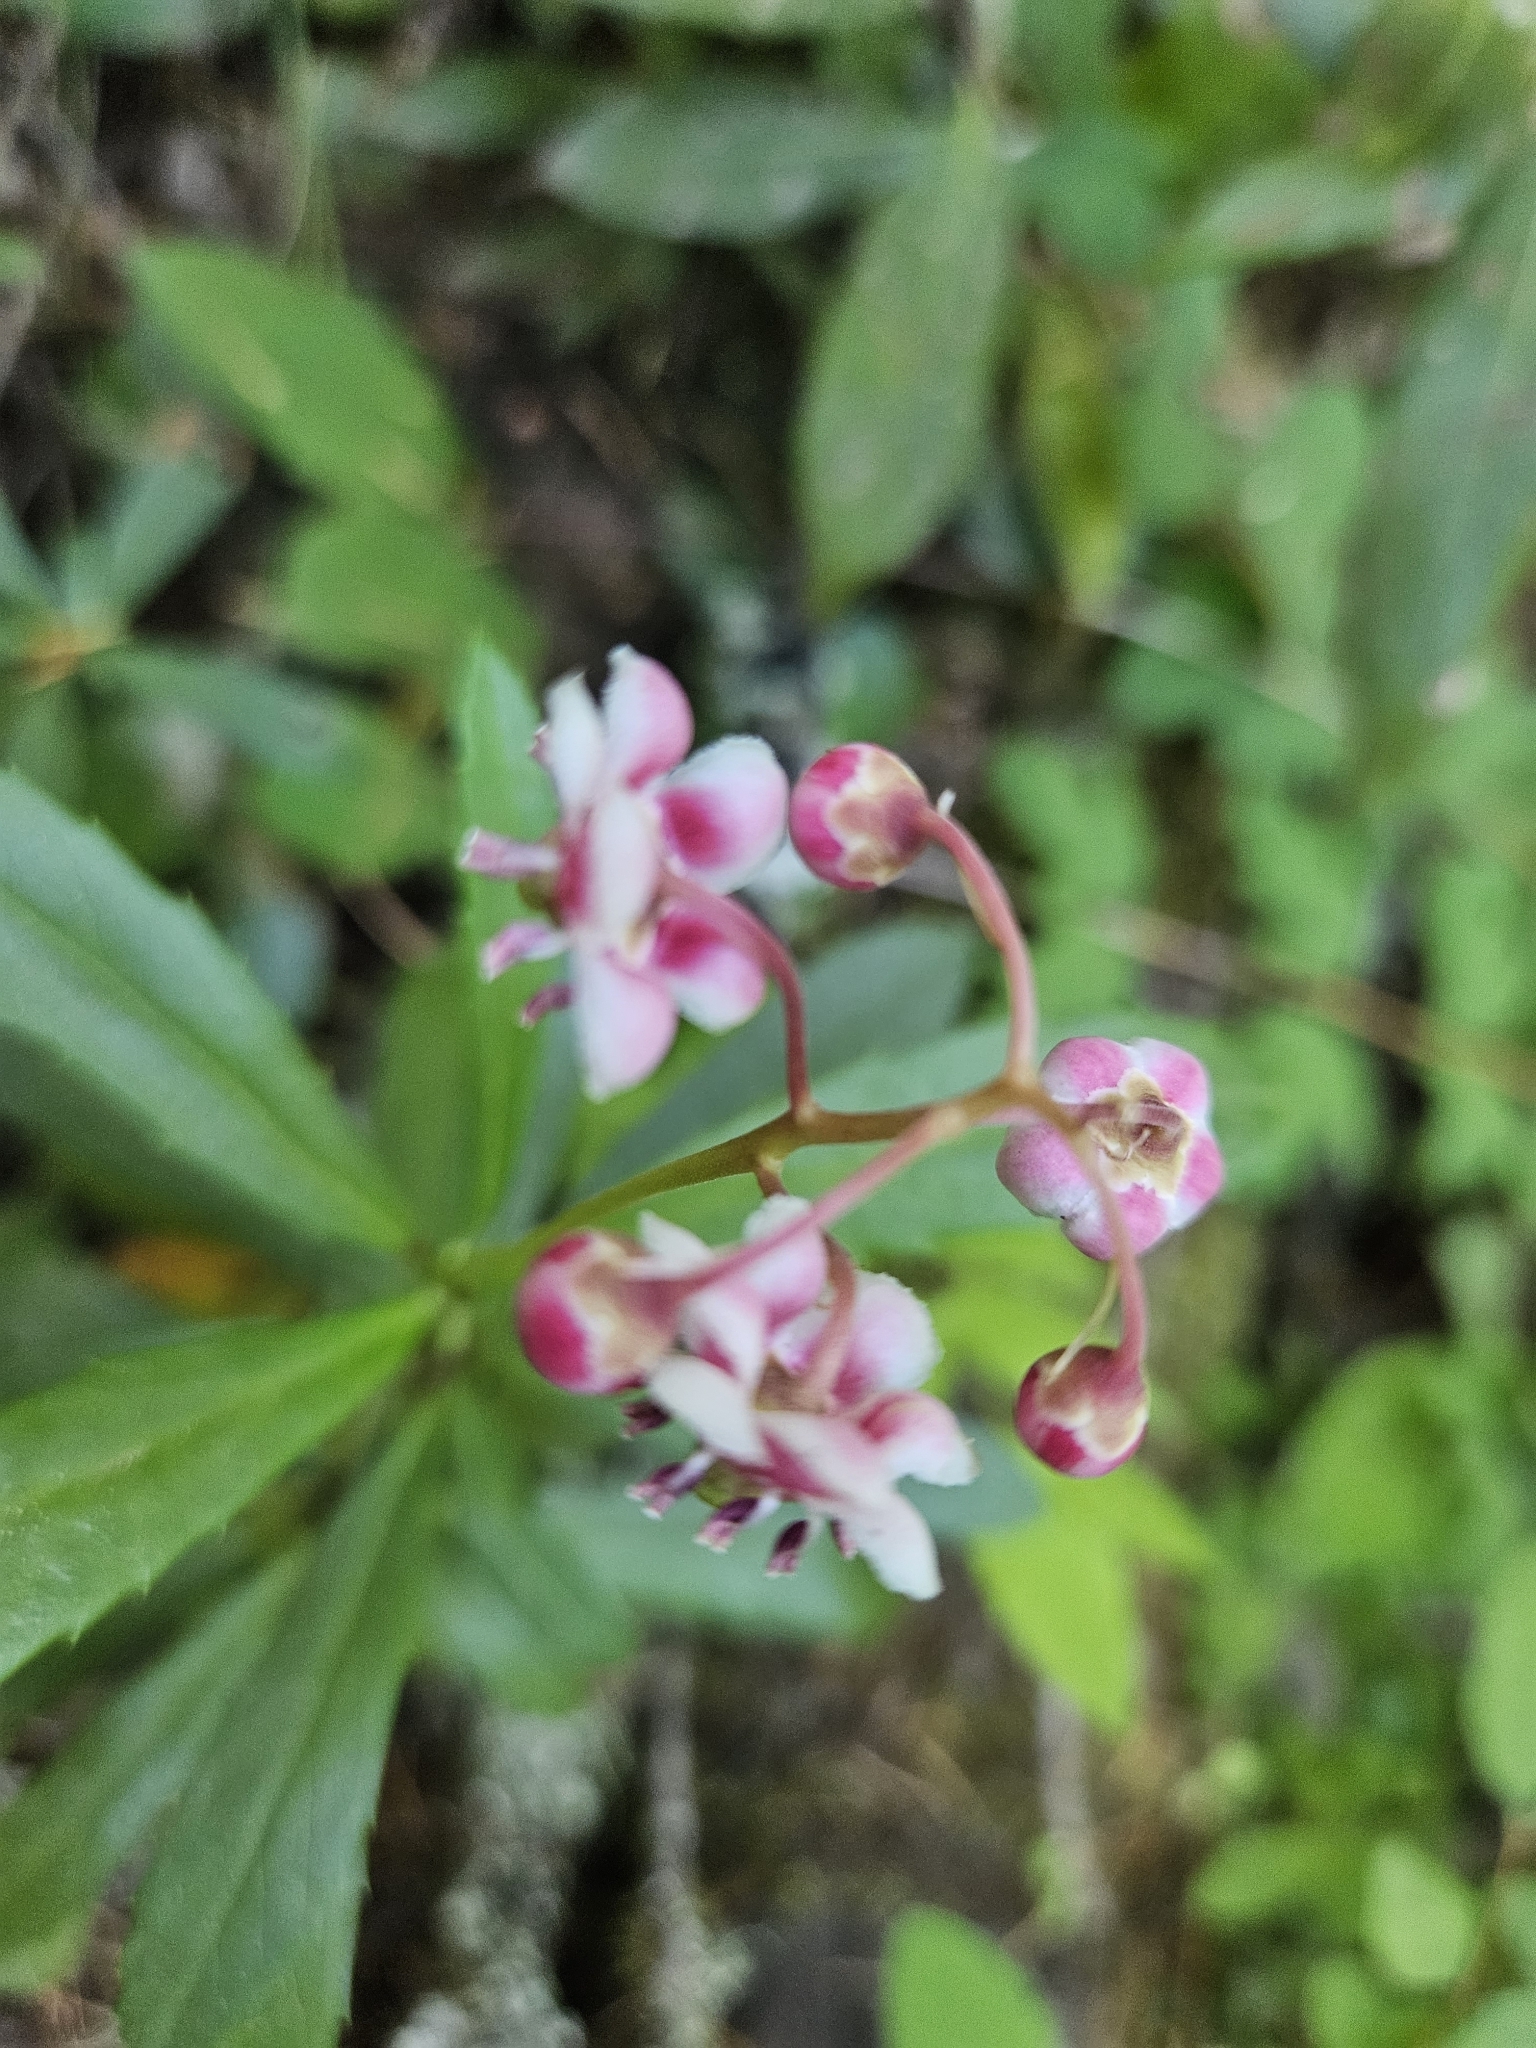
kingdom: Plantae
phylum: Tracheophyta
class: Magnoliopsida
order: Ericales
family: Ericaceae
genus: Chimaphila
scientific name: Chimaphila umbellata
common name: Pipsissewa
